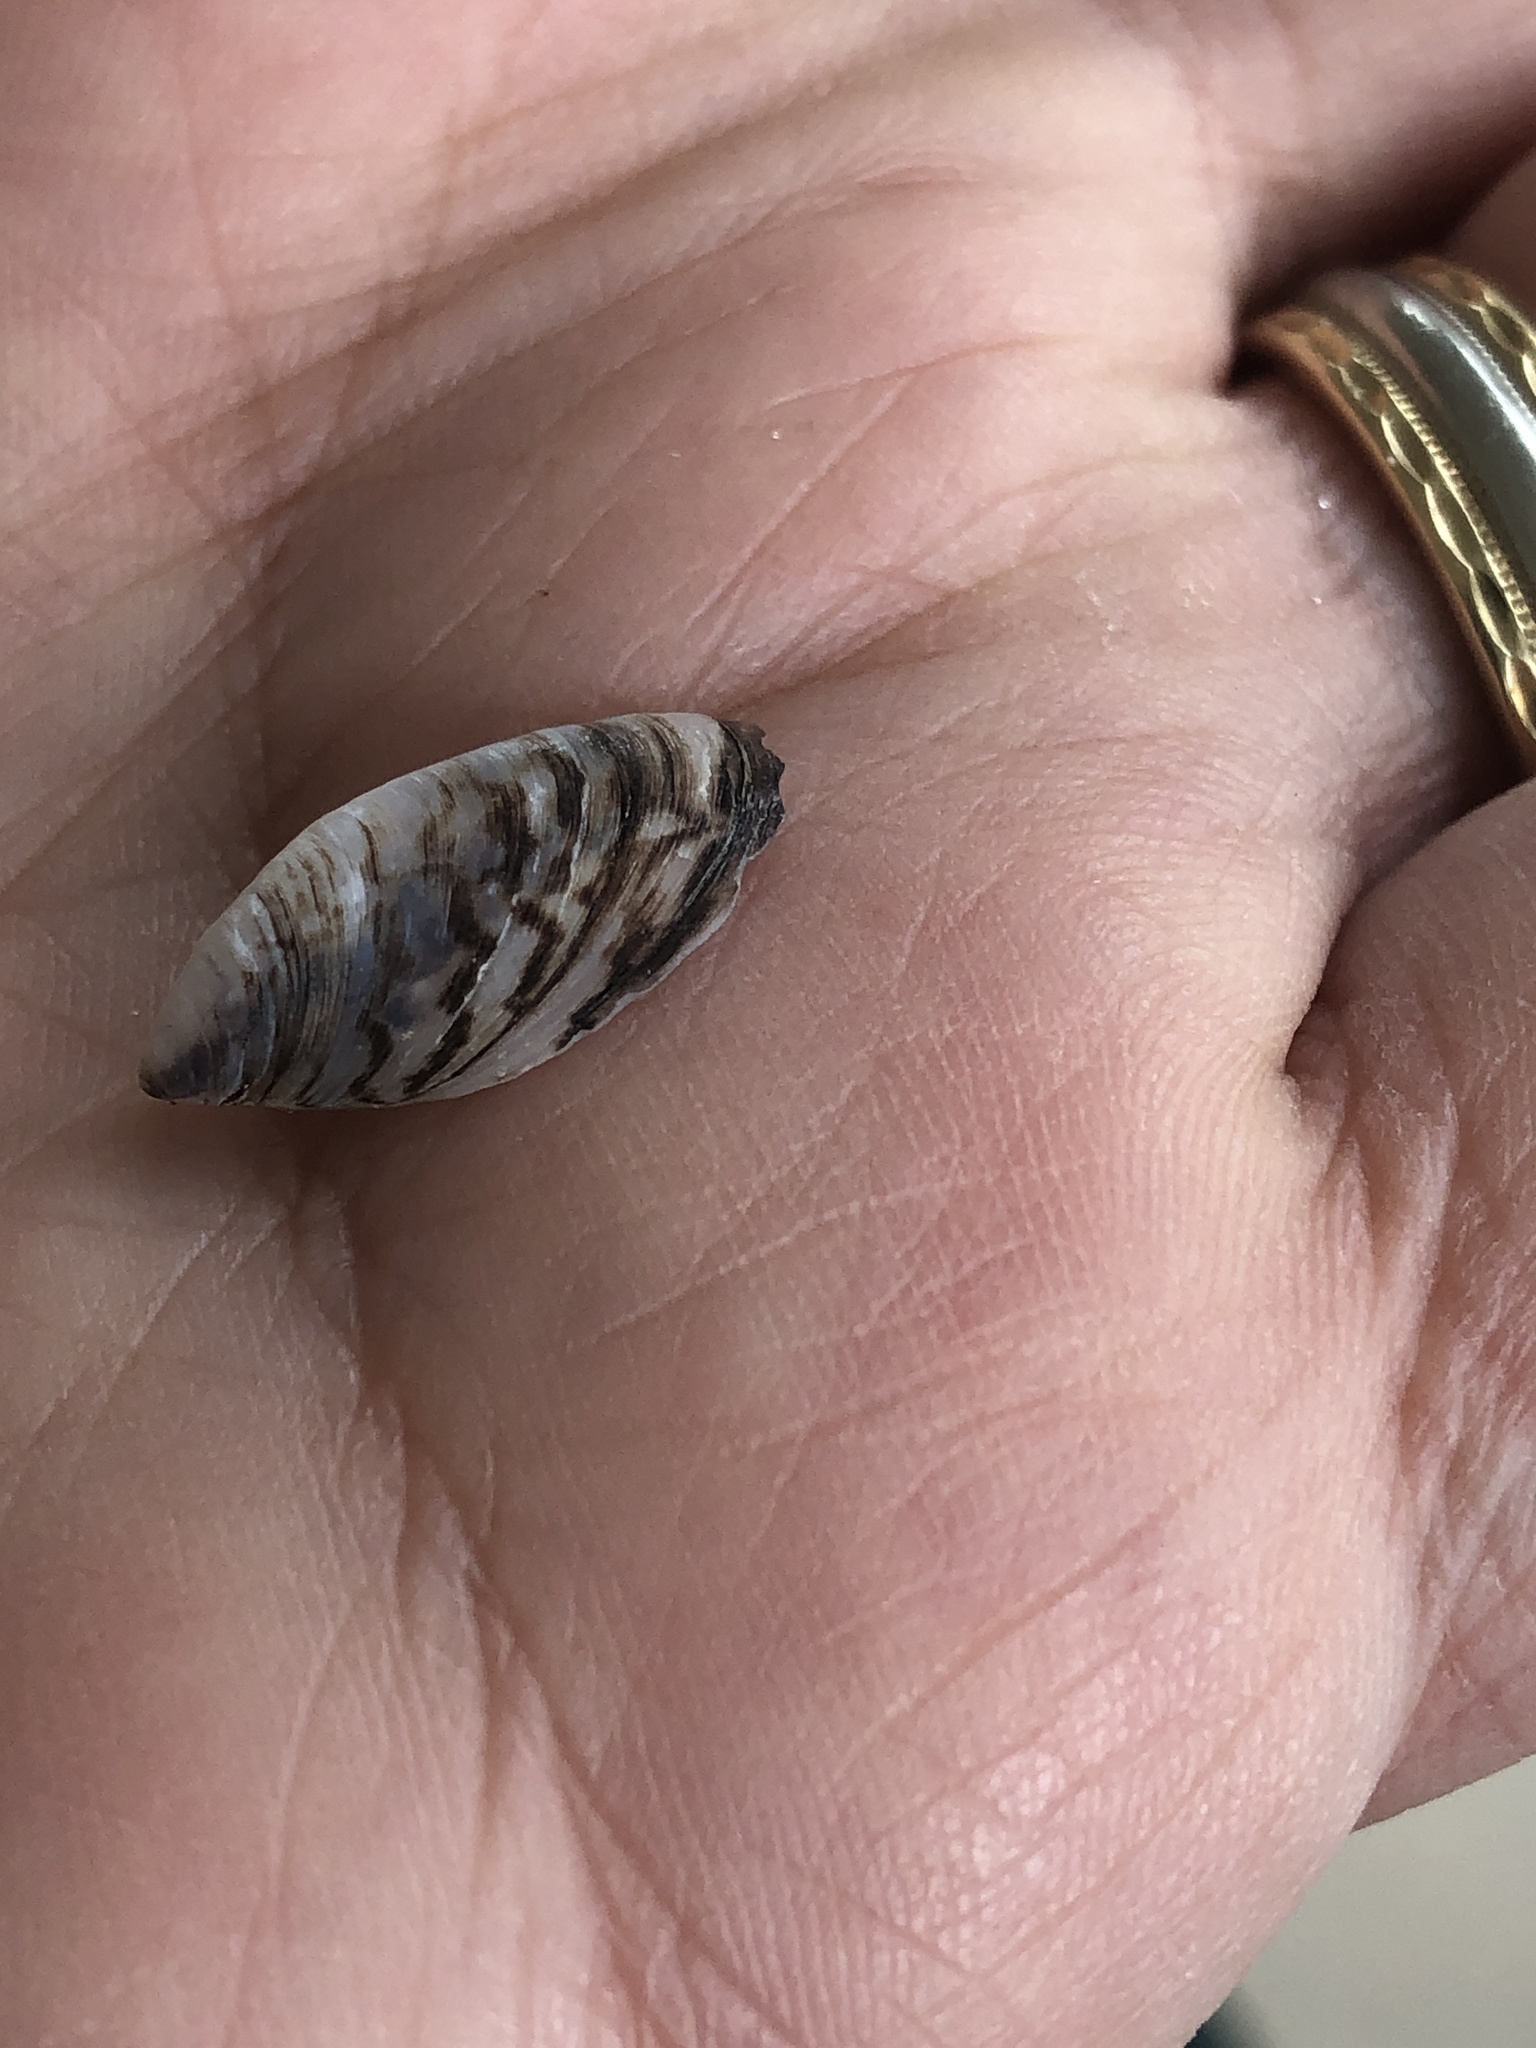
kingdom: Animalia
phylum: Mollusca
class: Bivalvia
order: Myida
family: Dreissenidae
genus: Dreissena
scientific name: Dreissena polymorpha
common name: Zebra mussel
